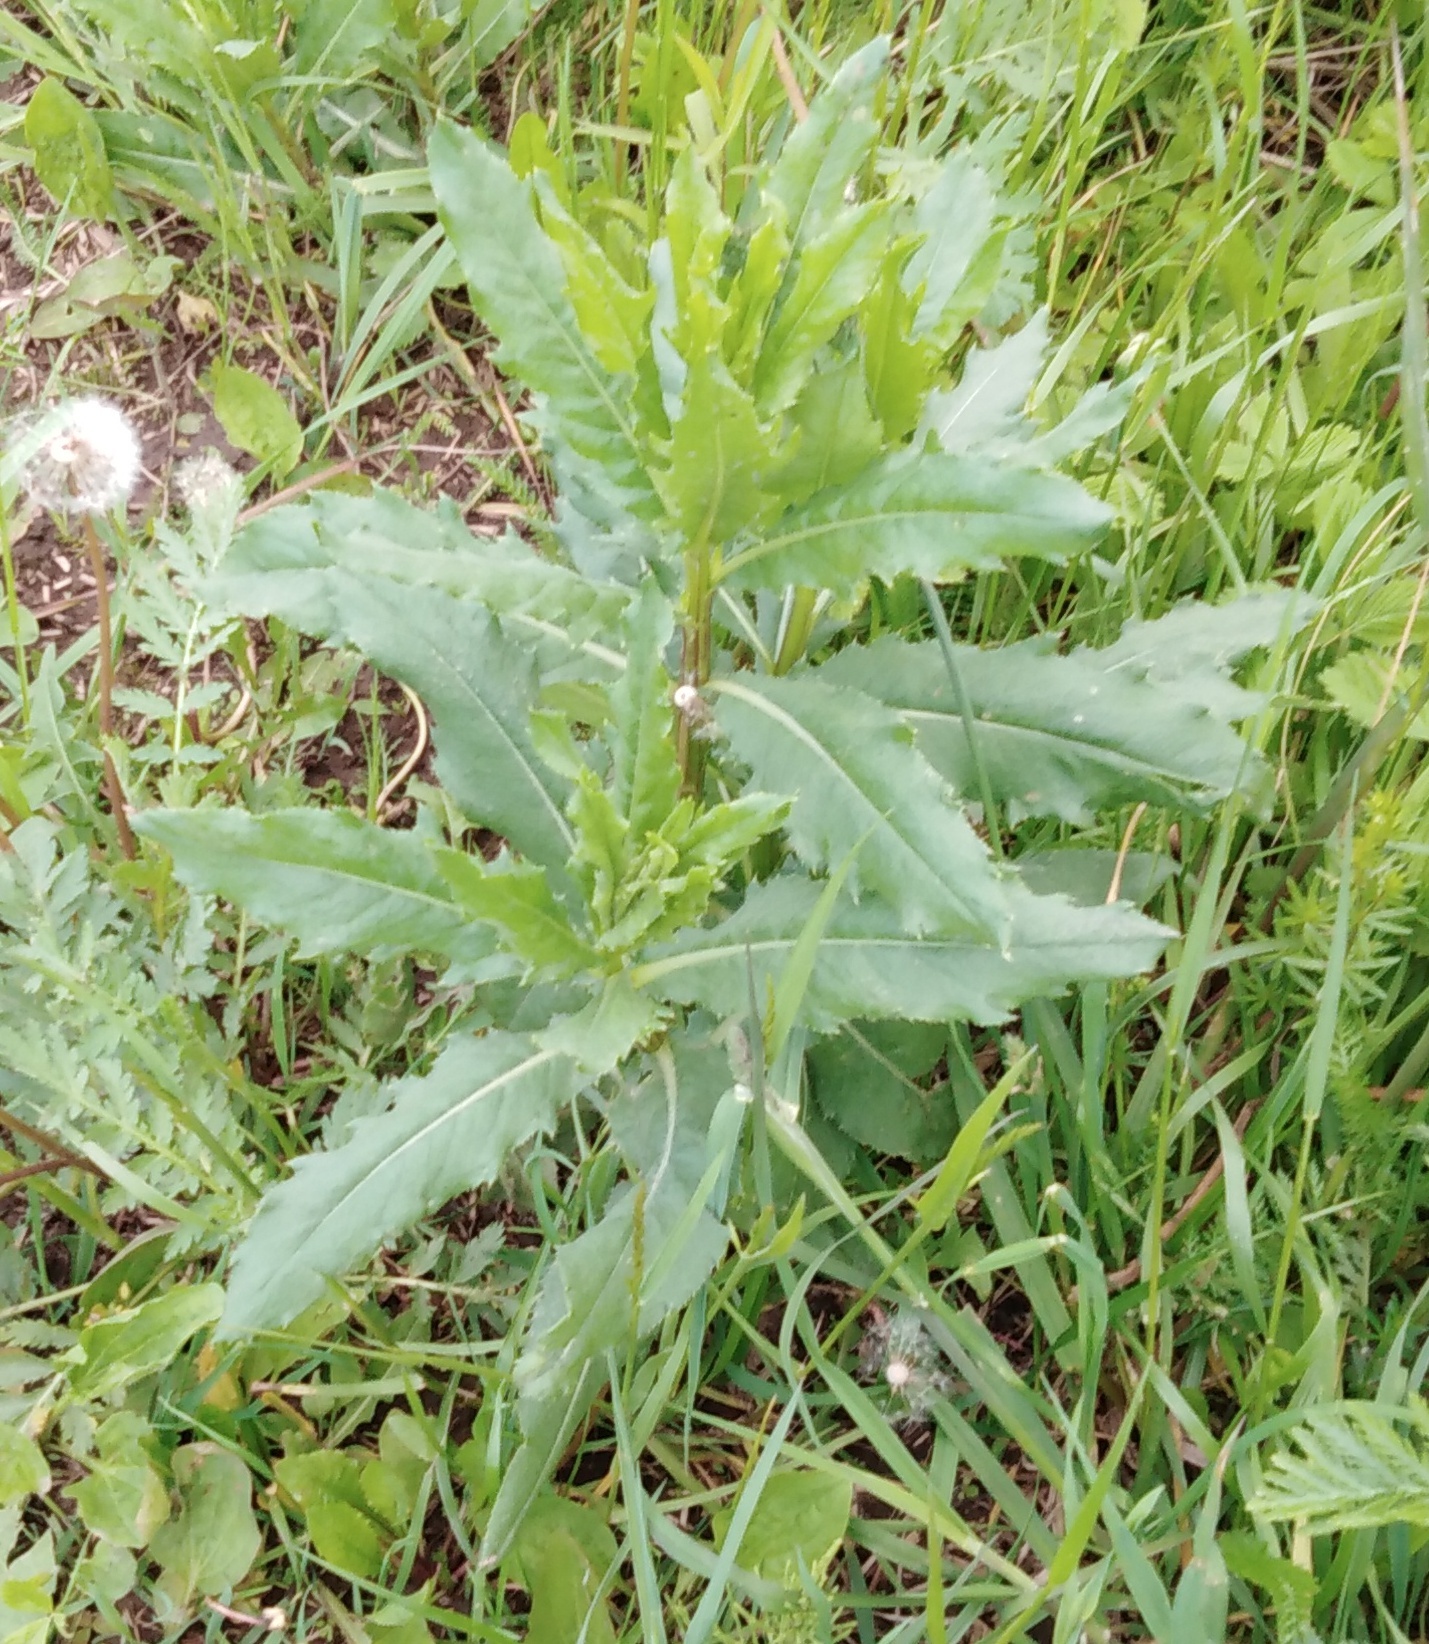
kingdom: Plantae
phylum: Tracheophyta
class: Magnoliopsida
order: Asterales
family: Asteraceae
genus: Cirsium
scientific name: Cirsium arvense
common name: Creeping thistle
